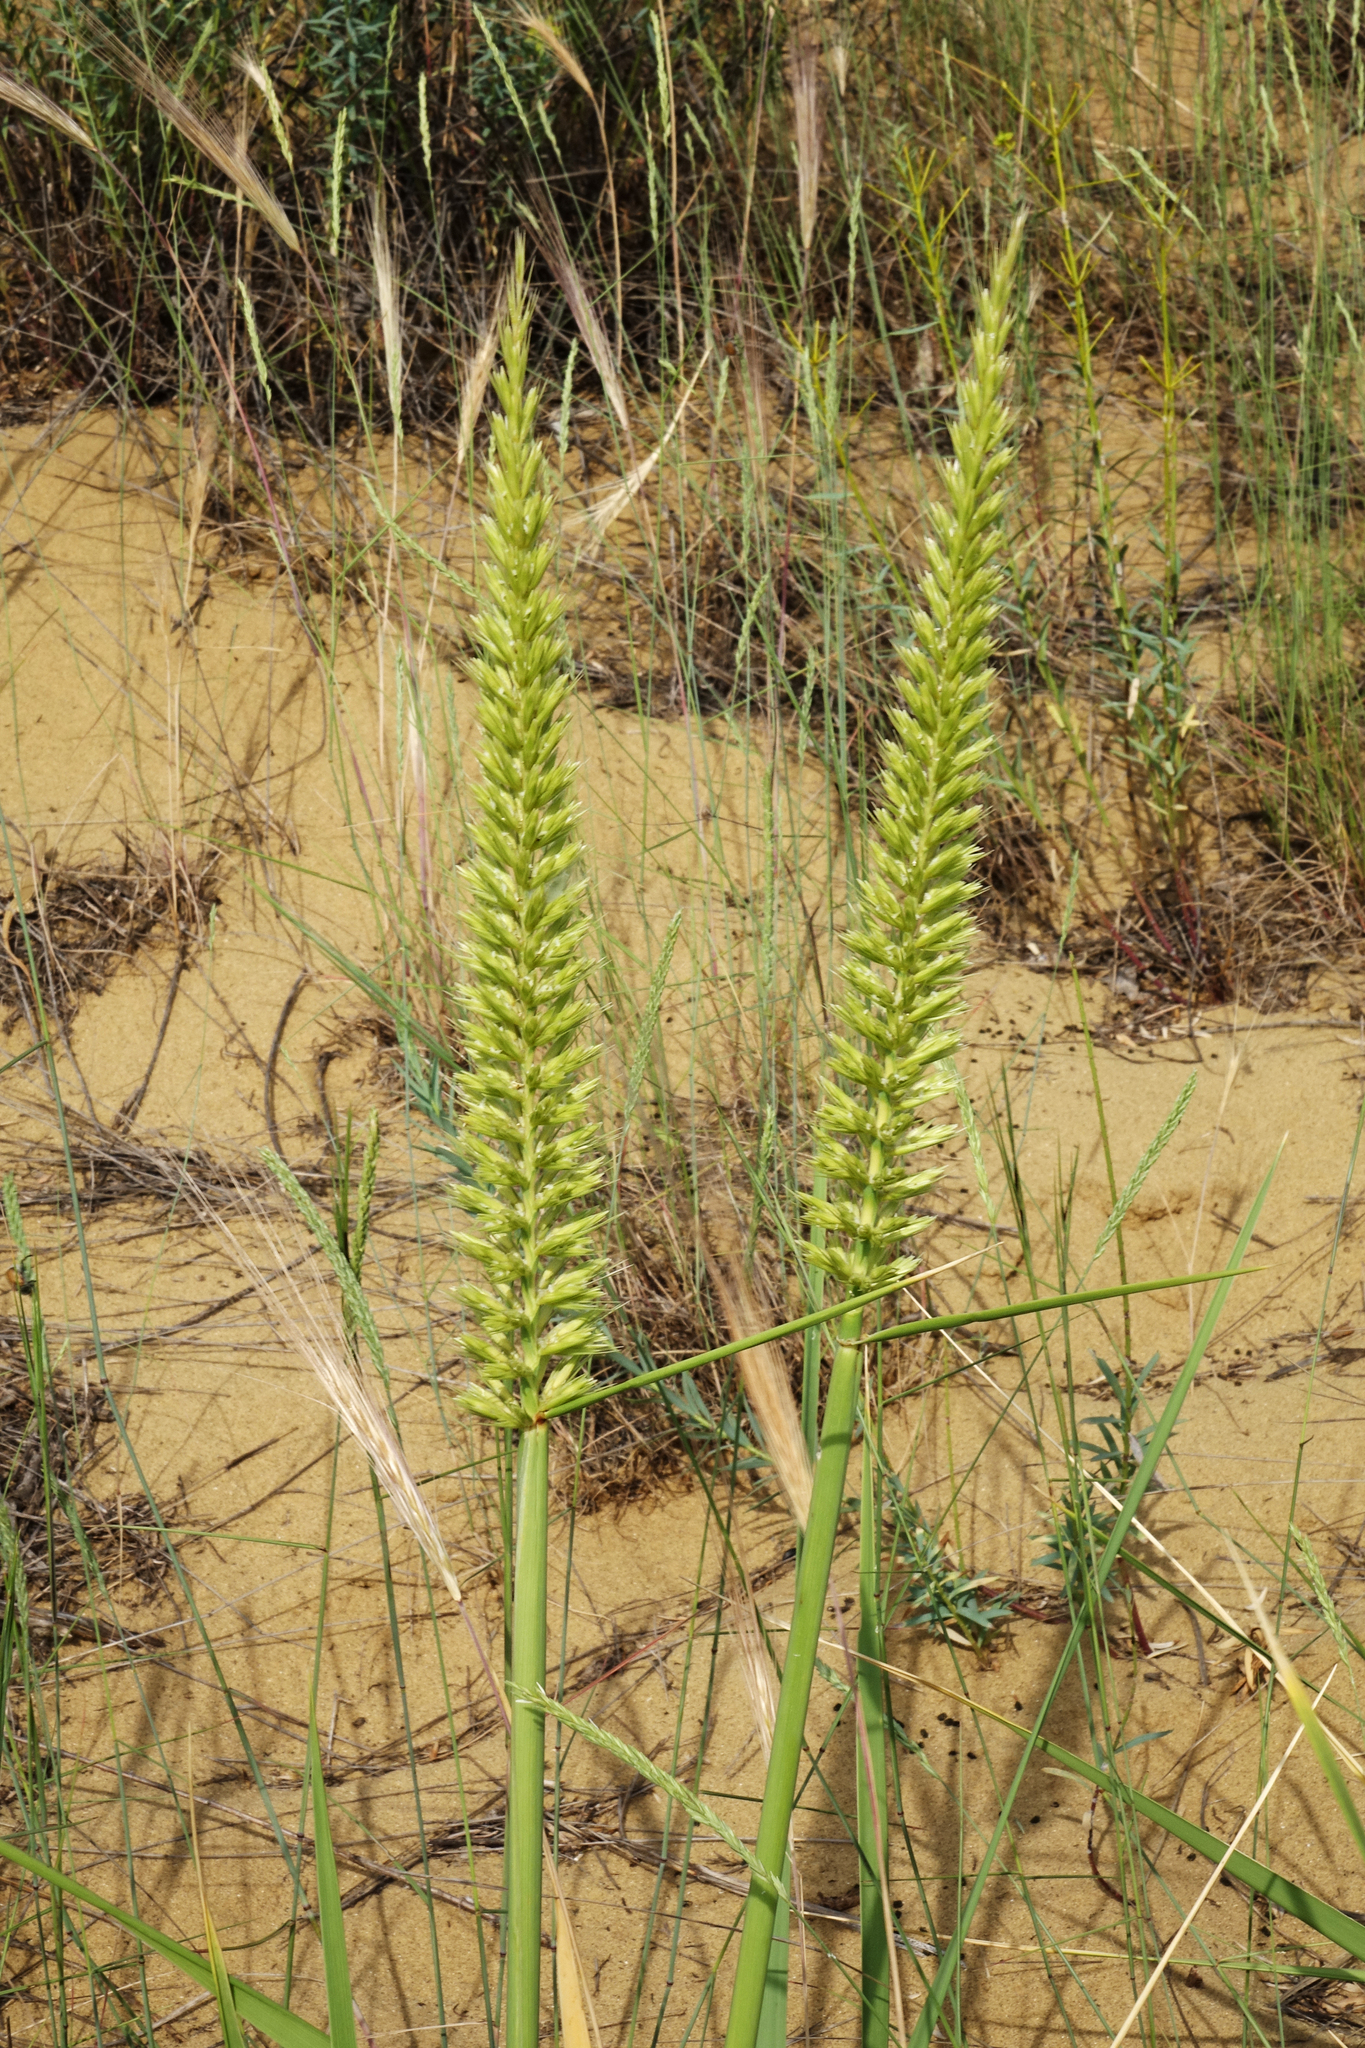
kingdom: Plantae
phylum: Tracheophyta
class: Liliopsida
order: Poales
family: Poaceae
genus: Leymus
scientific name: Leymus racemosus
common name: Mammoth wildrye
